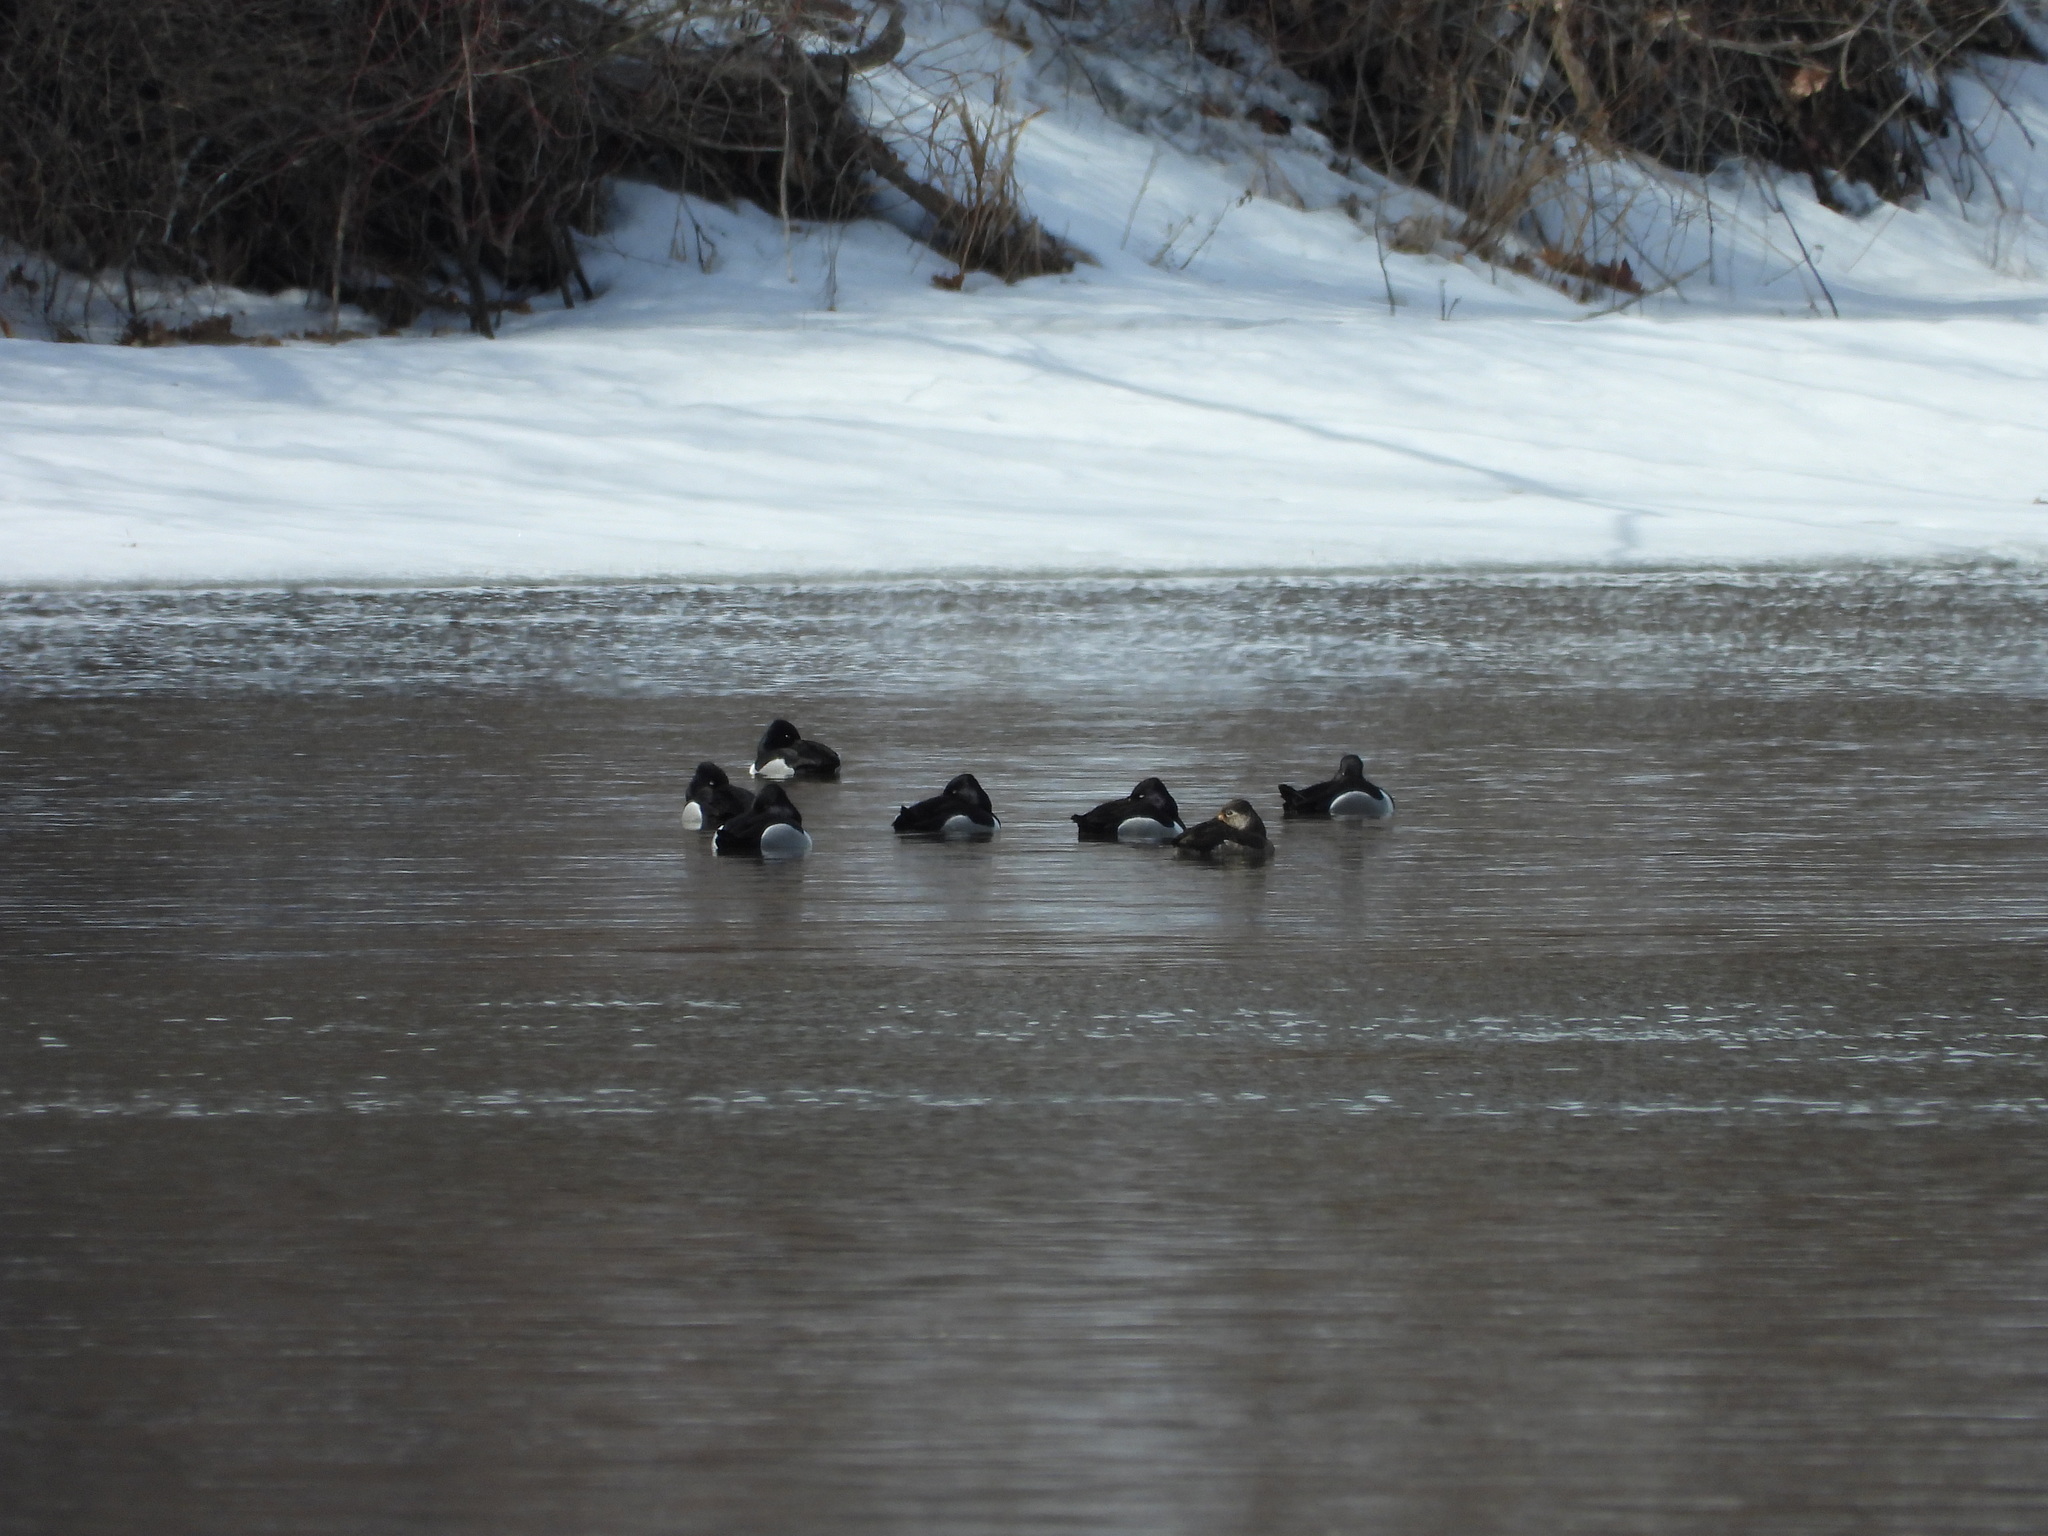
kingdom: Animalia
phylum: Chordata
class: Aves
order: Anseriformes
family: Anatidae
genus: Aythya
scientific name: Aythya collaris
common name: Ring-necked duck
